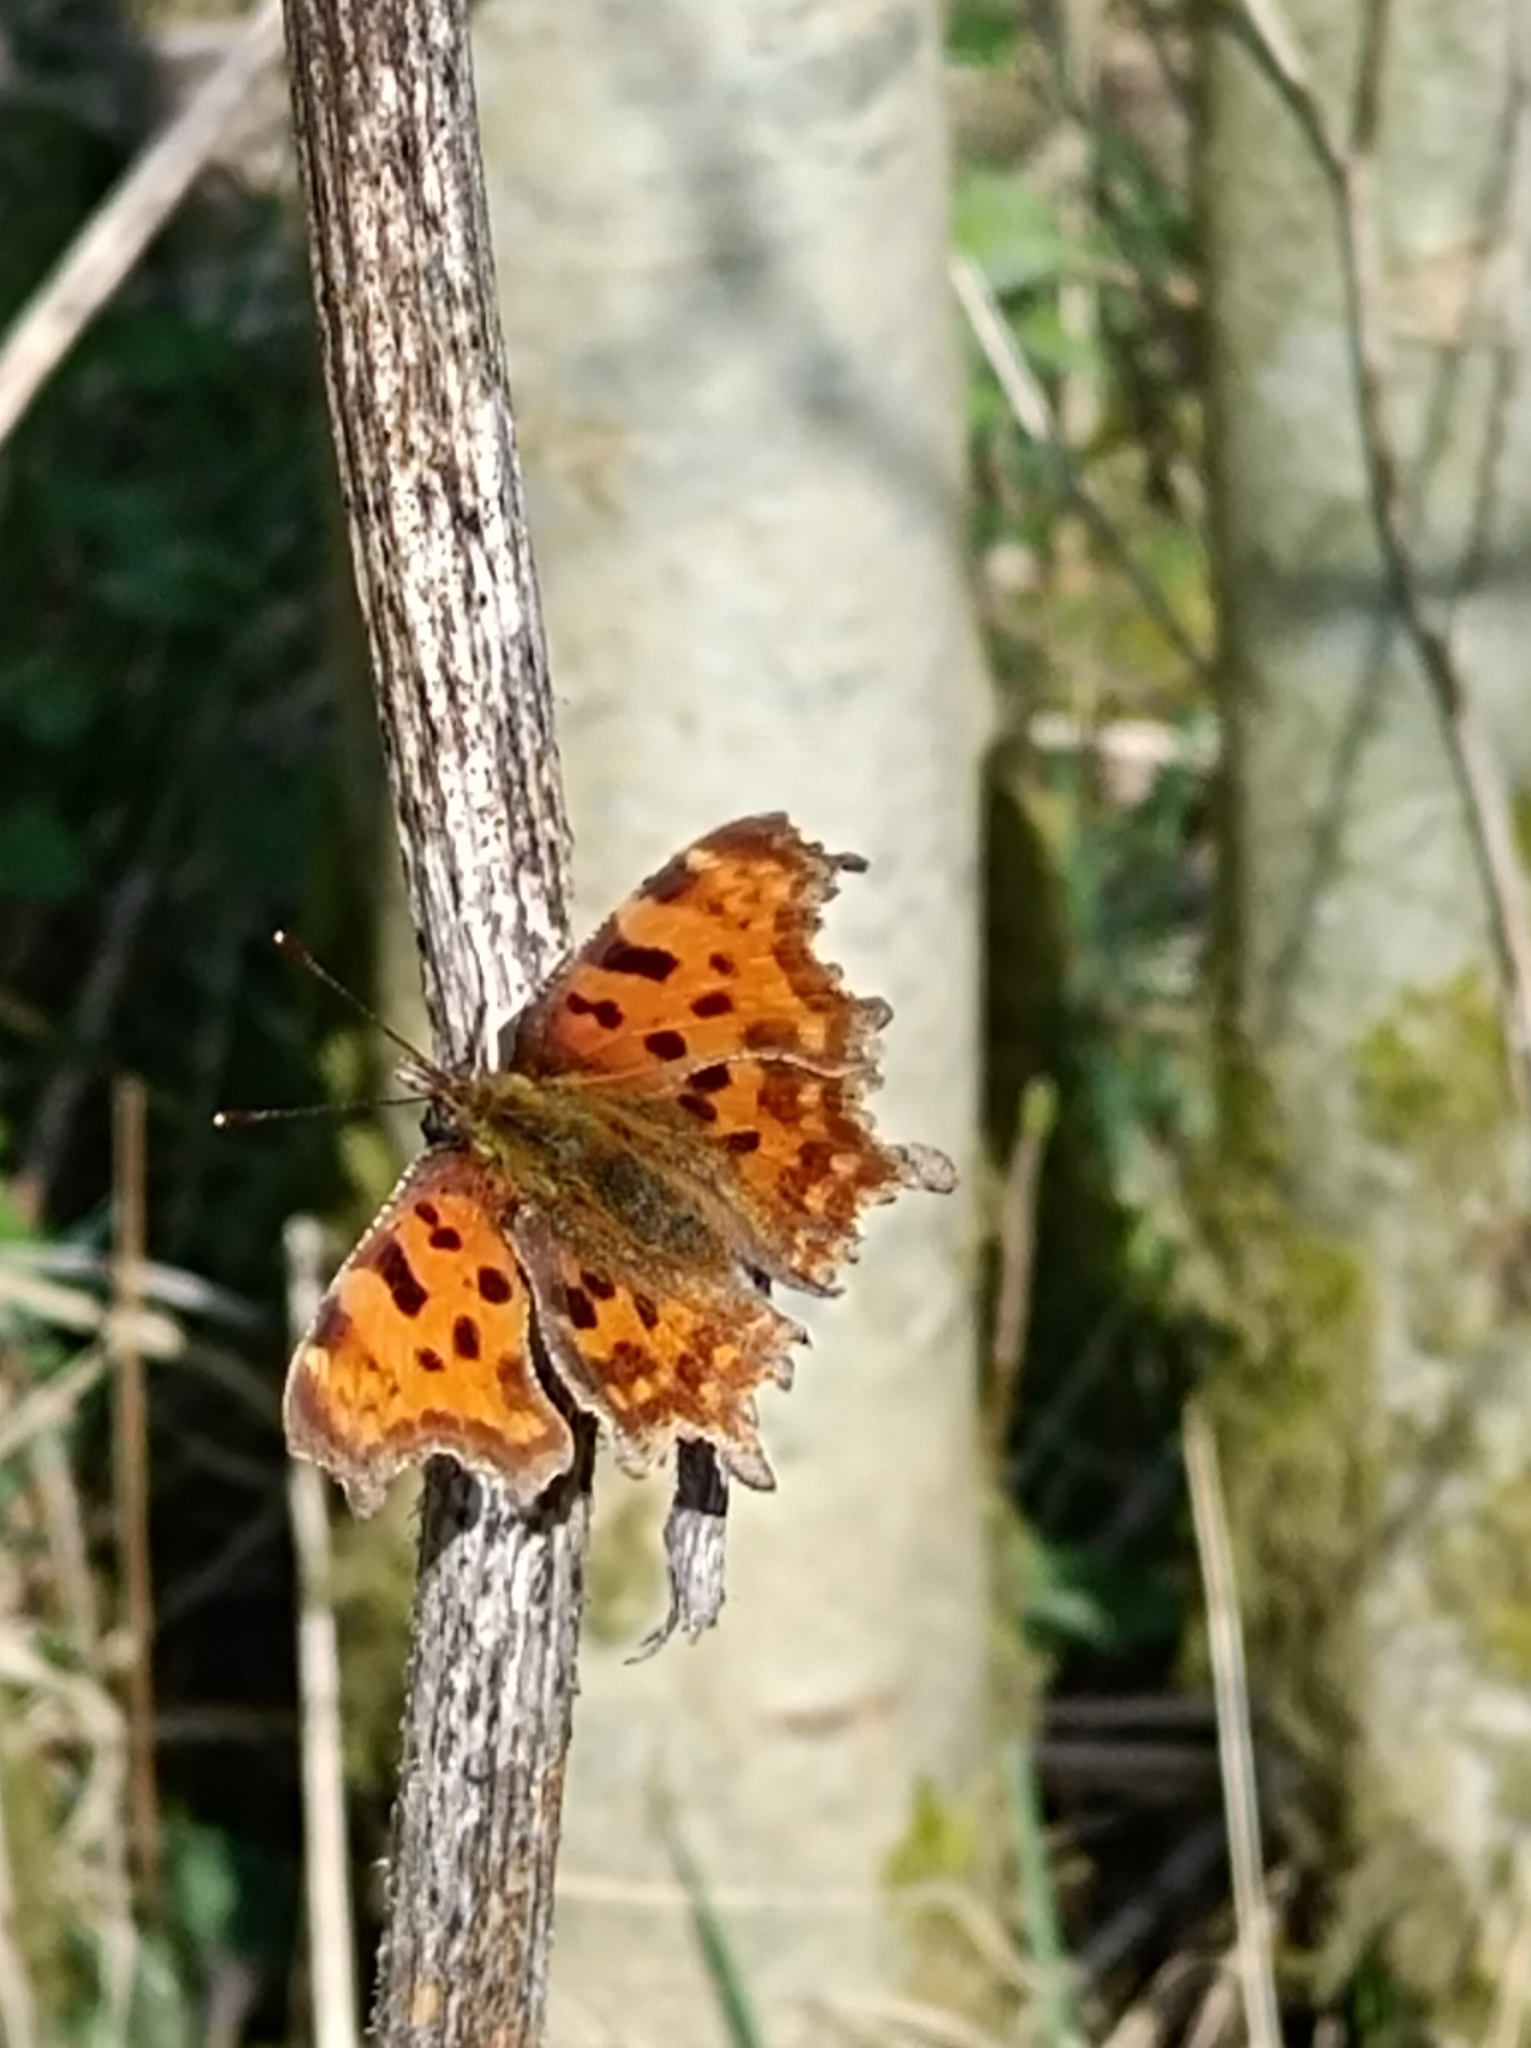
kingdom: Animalia
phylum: Arthropoda
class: Insecta
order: Lepidoptera
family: Nymphalidae
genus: Polygonia
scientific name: Polygonia c-album
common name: Comma
